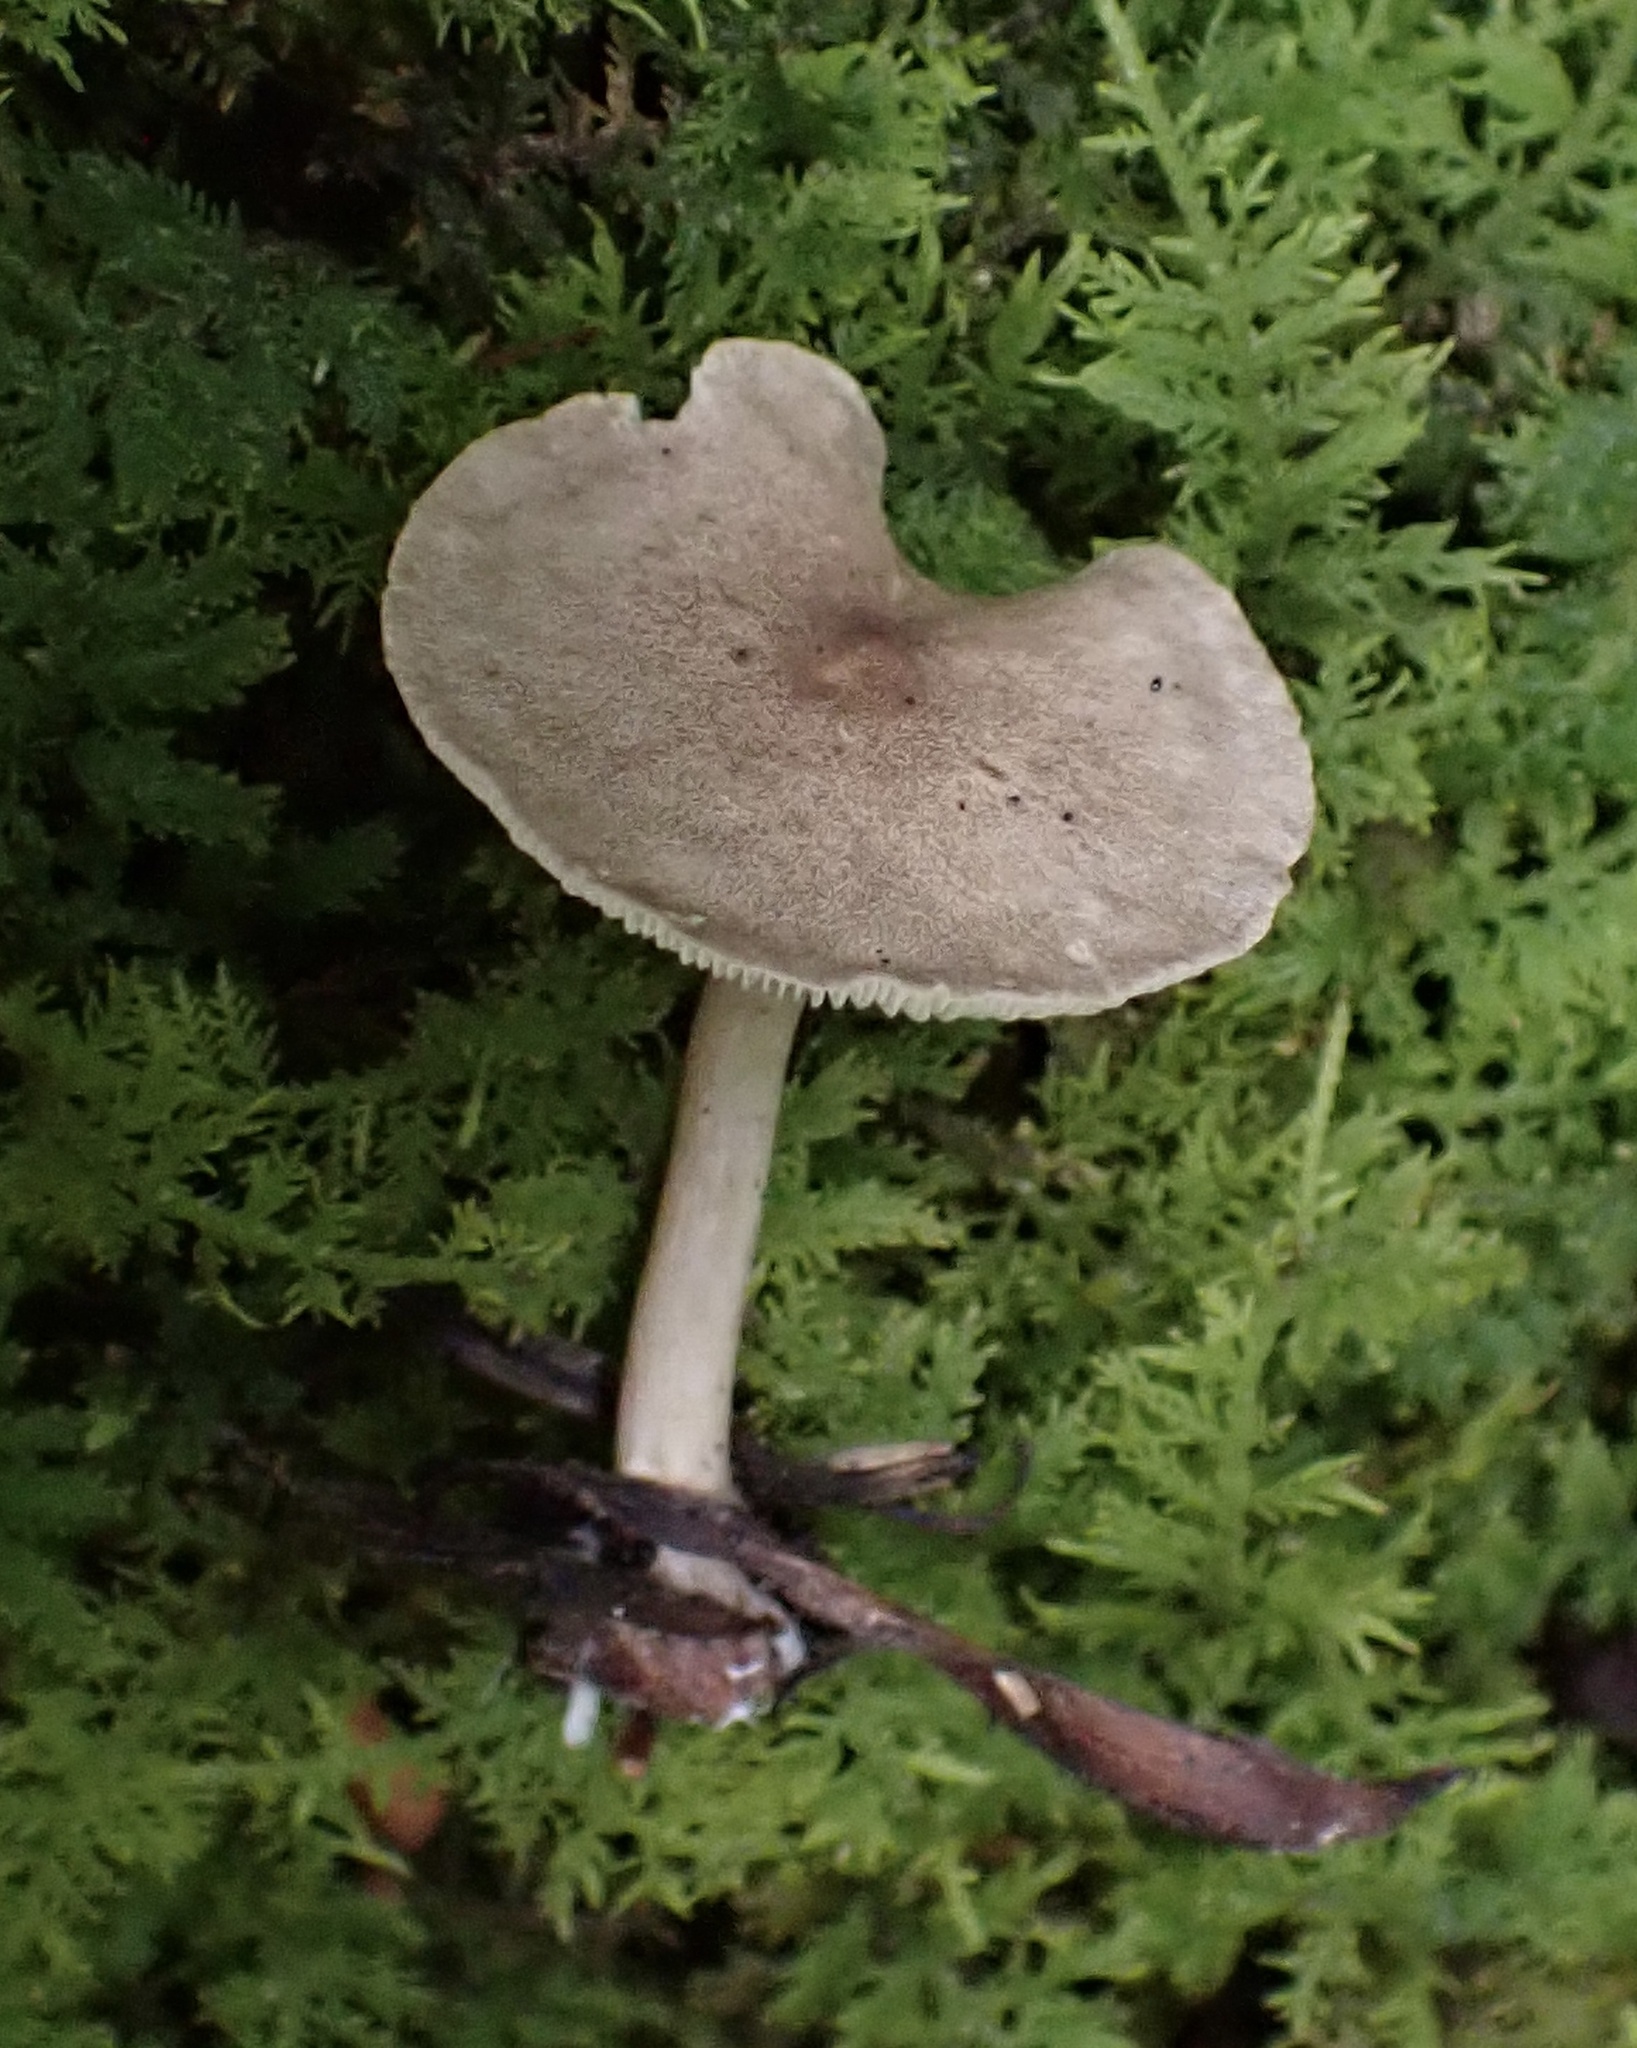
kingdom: Fungi
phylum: Basidiomycota
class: Agaricomycetes
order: Agaricales
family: Hygrophoraceae
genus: Spodocybe
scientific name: Spodocybe trulliformis
